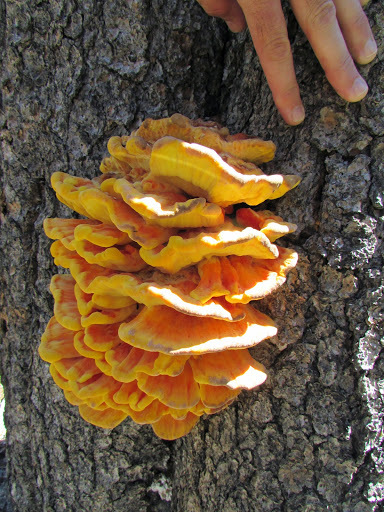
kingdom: Fungi
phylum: Basidiomycota
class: Agaricomycetes
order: Polyporales
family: Laetiporaceae
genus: Laetiporus
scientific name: Laetiporus conifericola
